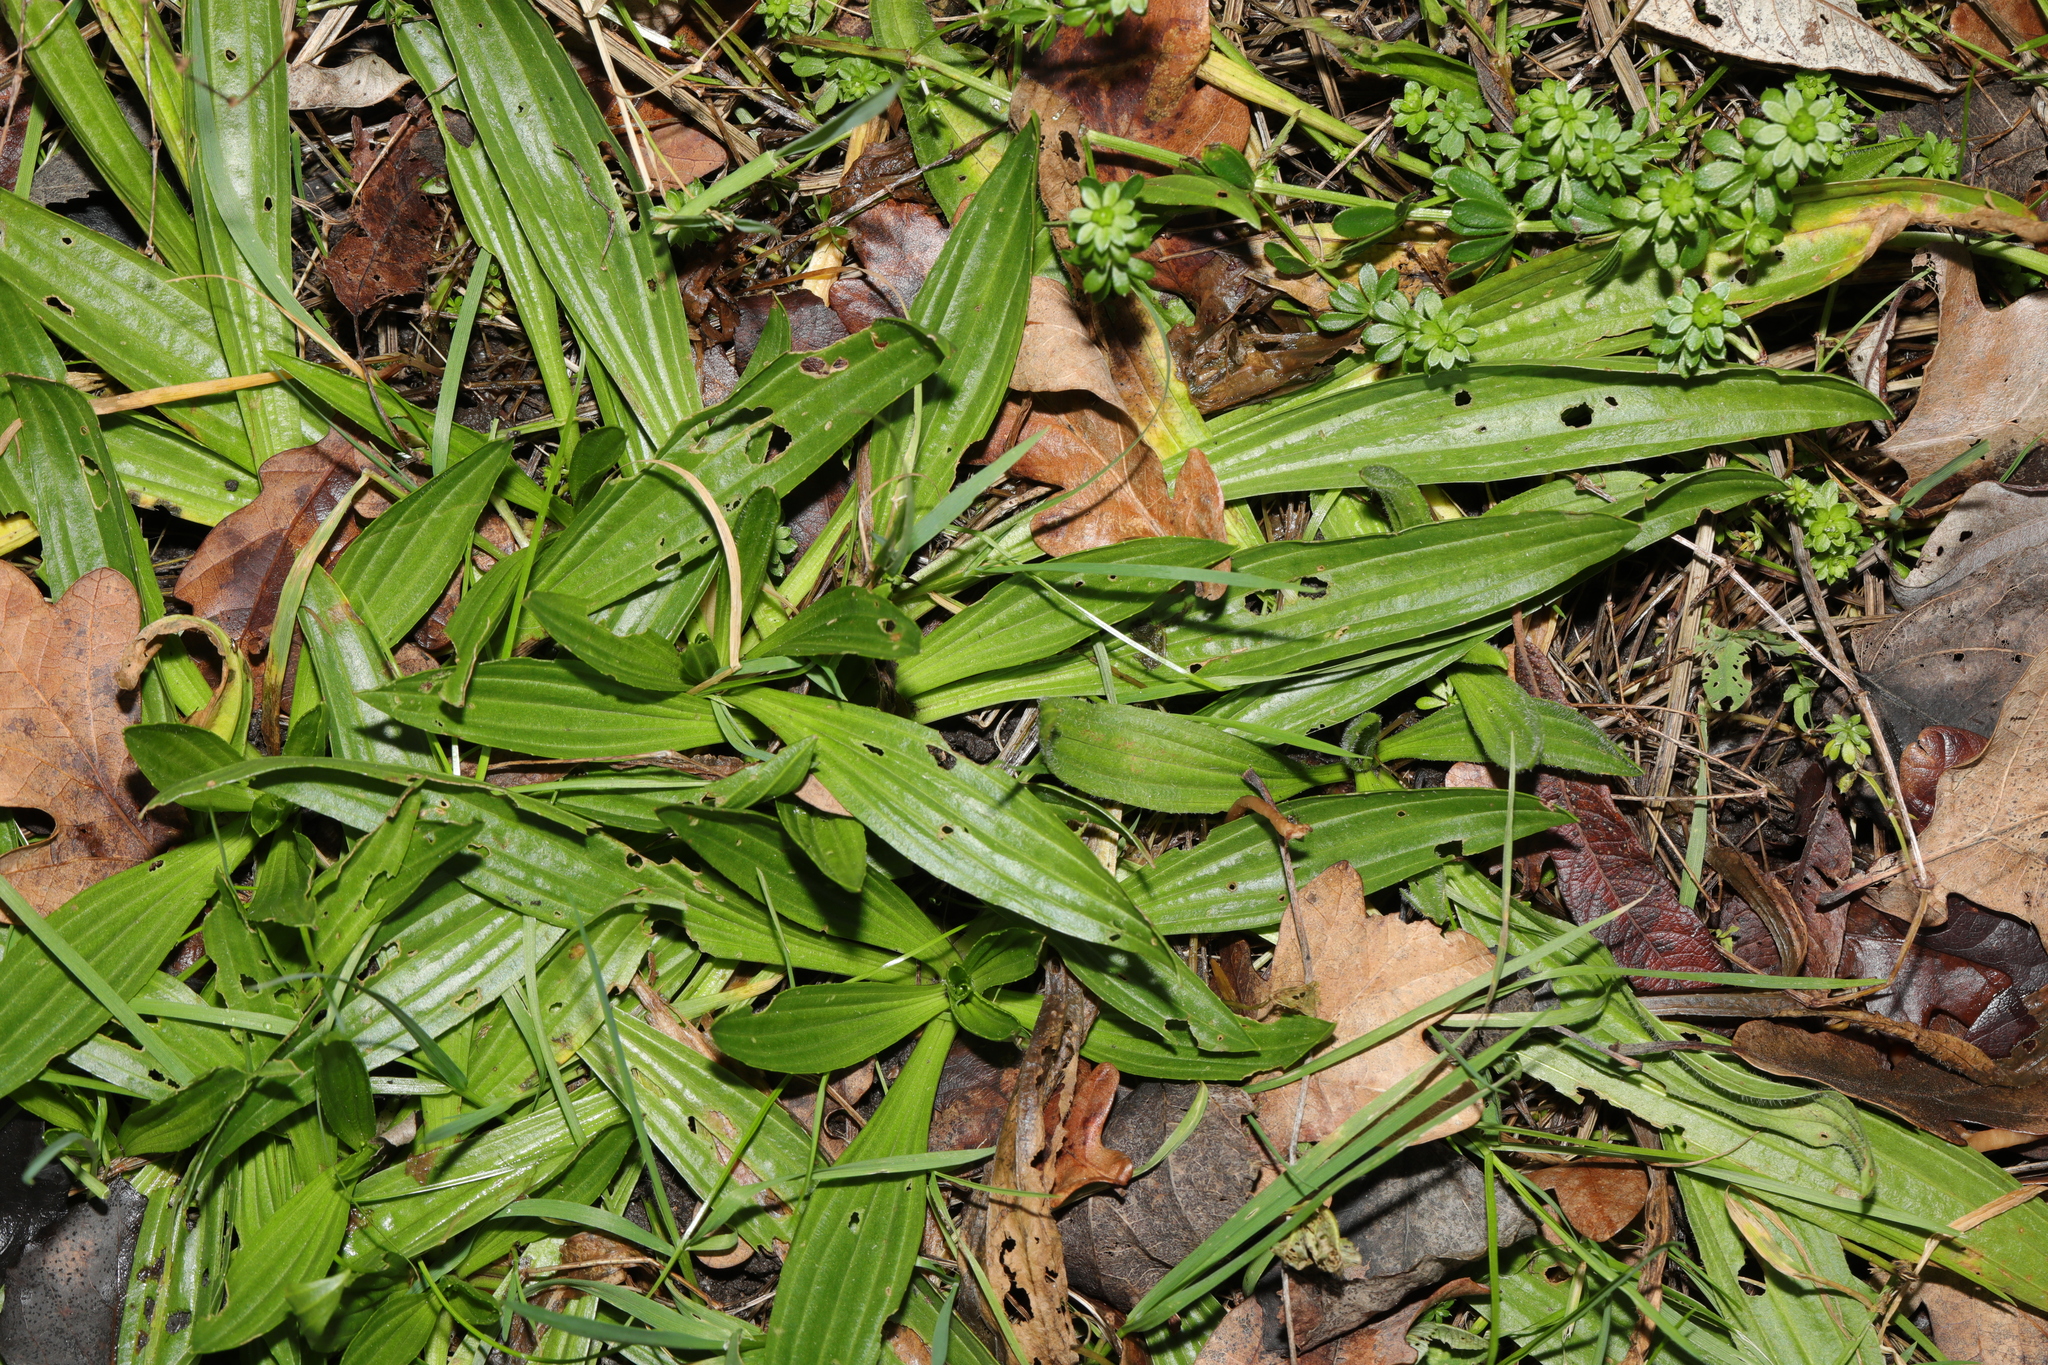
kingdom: Plantae
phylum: Tracheophyta
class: Magnoliopsida
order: Lamiales
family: Plantaginaceae
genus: Plantago
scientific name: Plantago lanceolata
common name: Ribwort plantain
